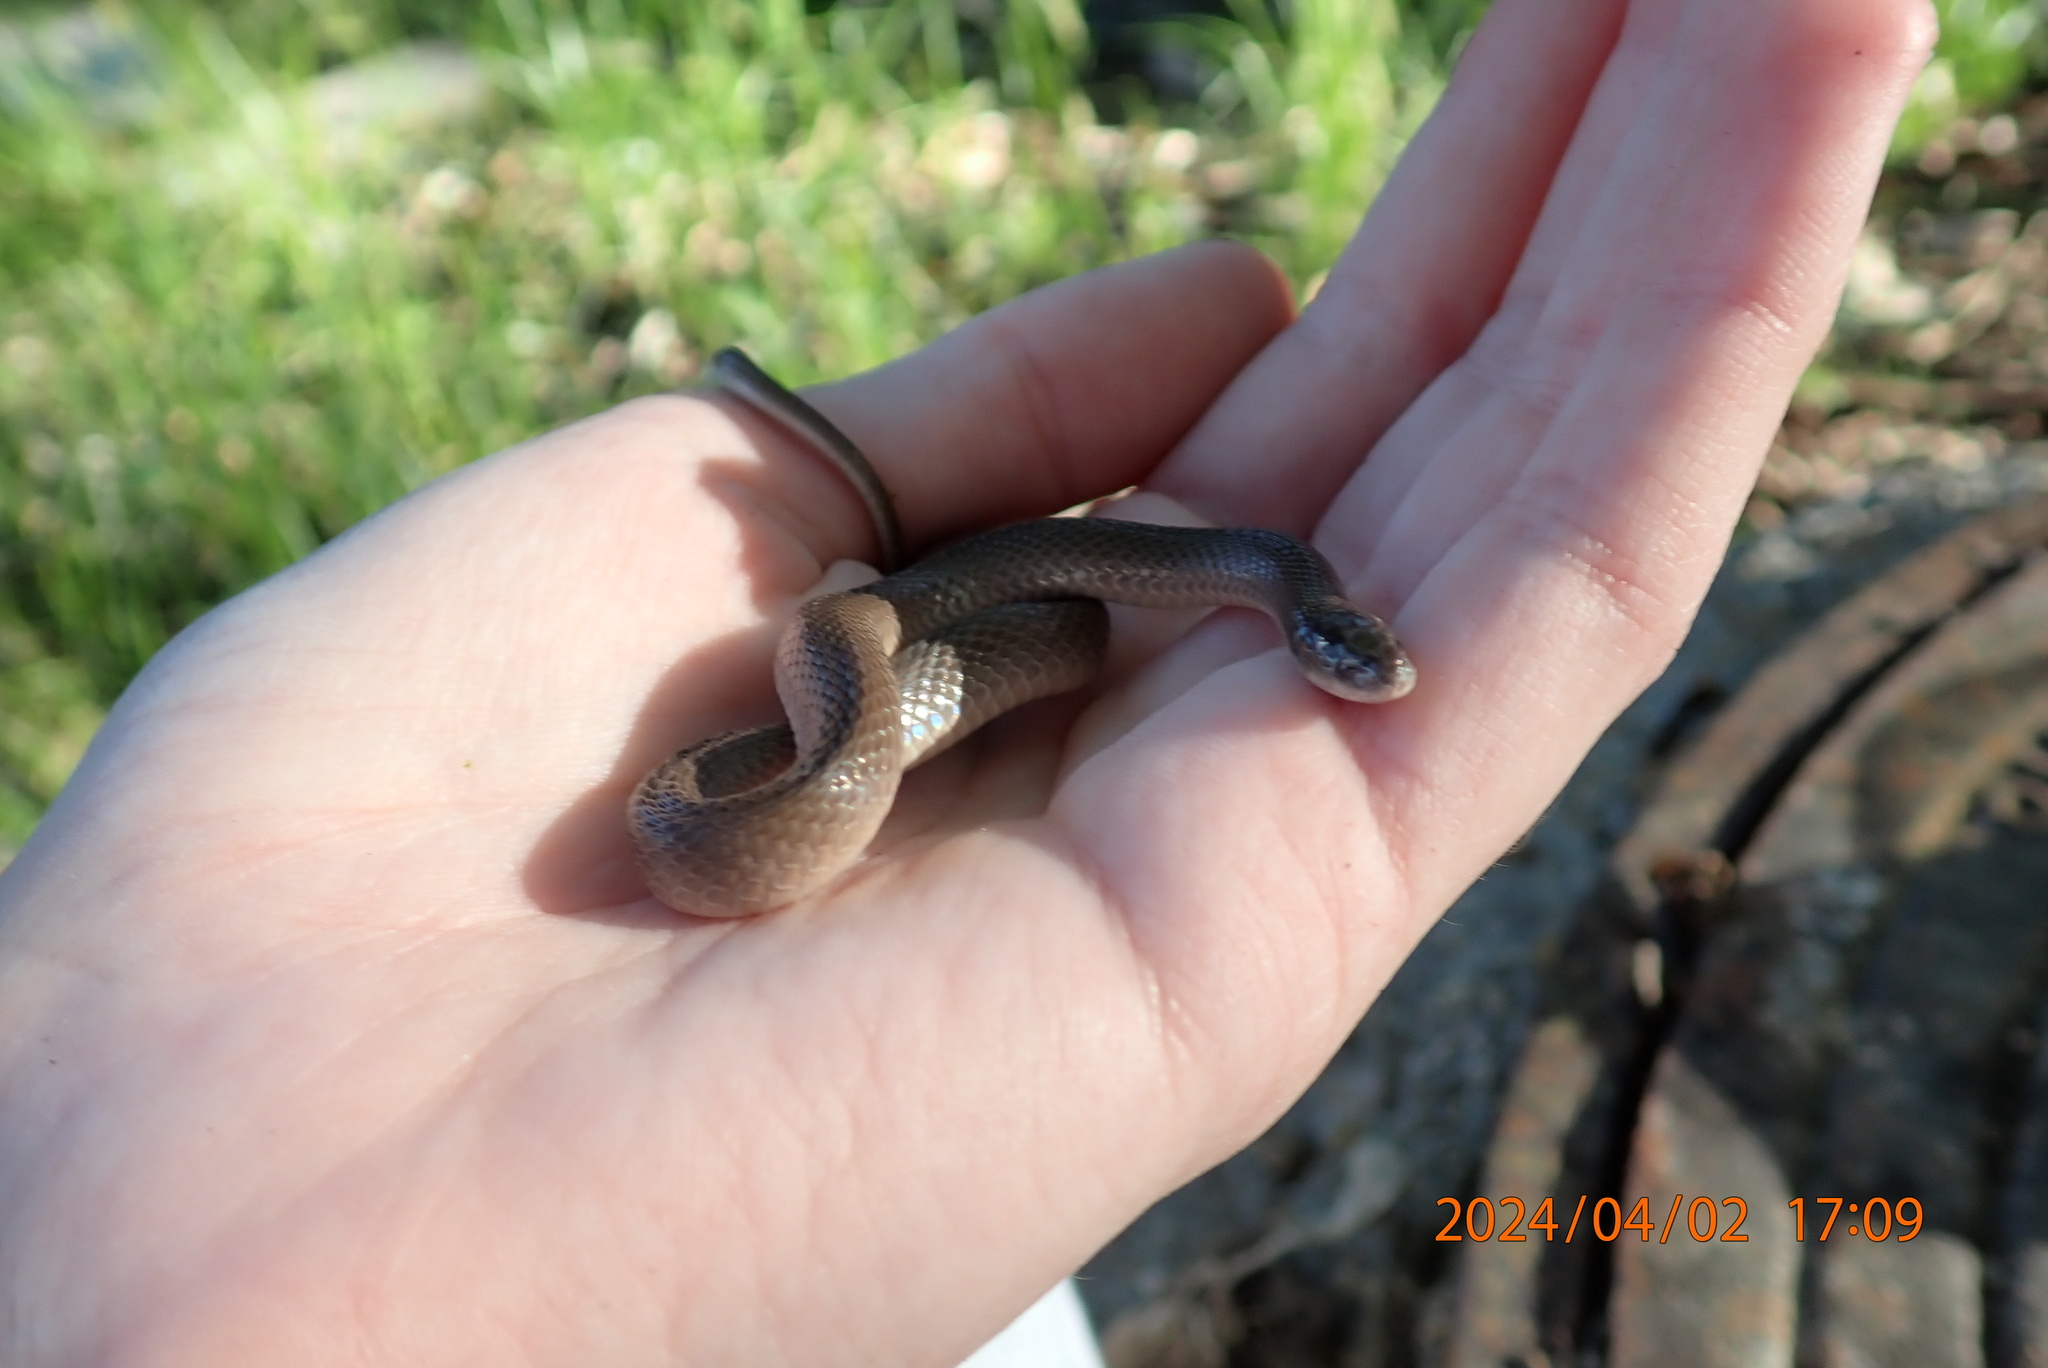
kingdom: Animalia
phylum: Chordata
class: Squamata
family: Colubridae
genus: Haldea
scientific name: Haldea striatula
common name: Rough earth snake
